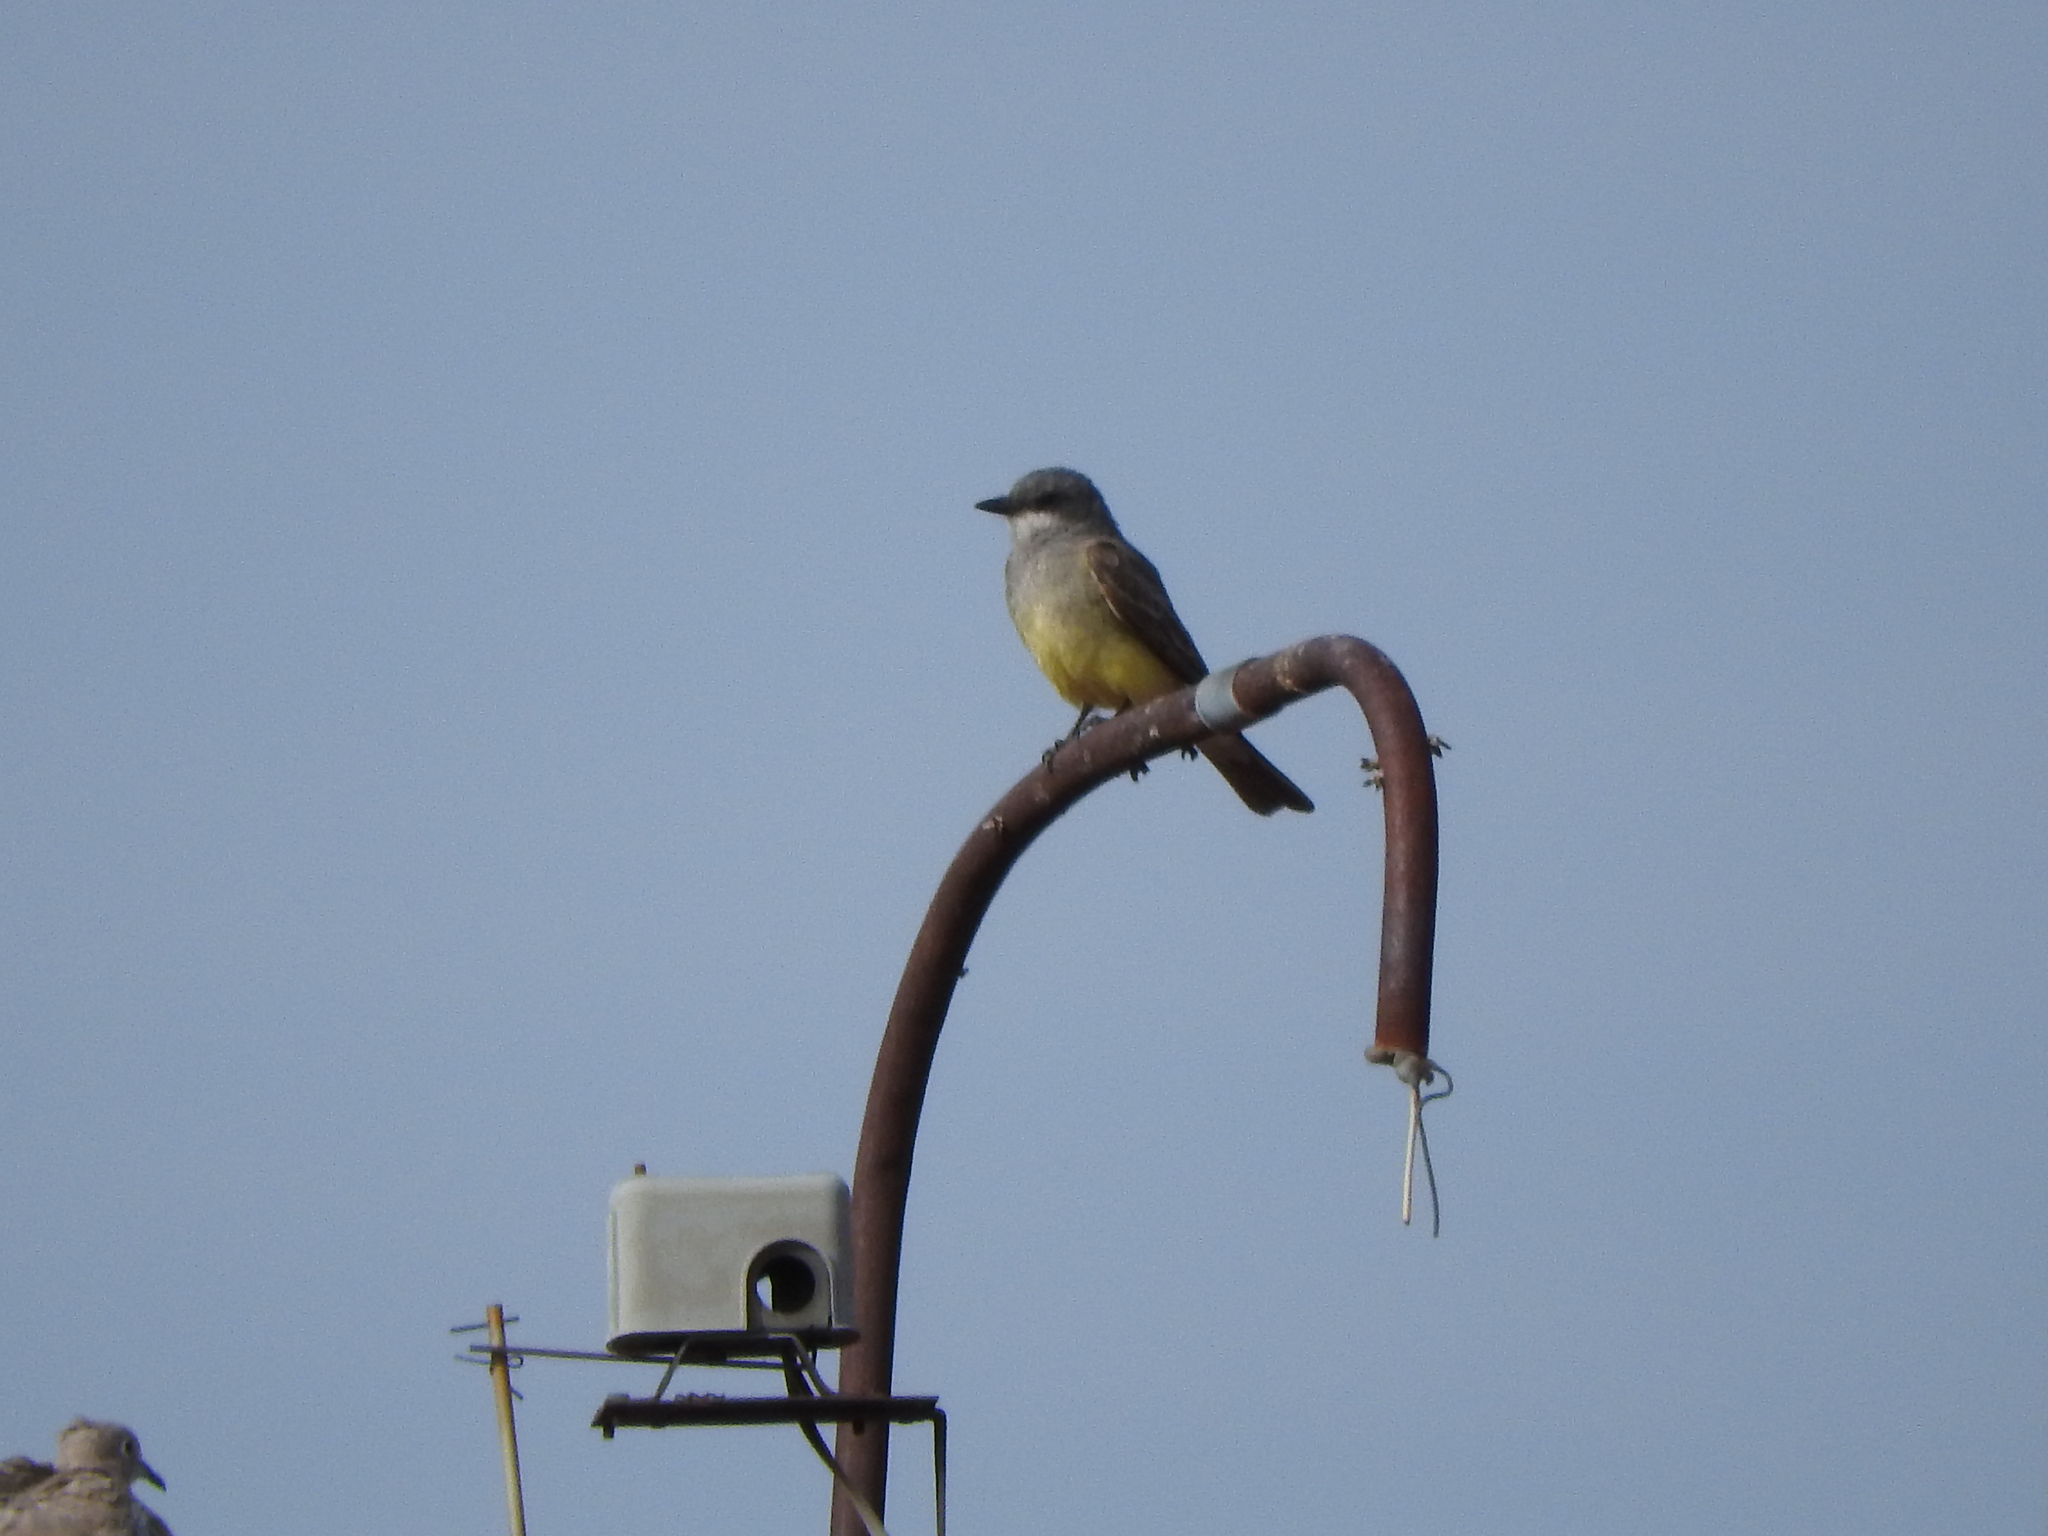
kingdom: Animalia
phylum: Chordata
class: Aves
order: Passeriformes
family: Tyrannidae
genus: Tyrannus
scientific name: Tyrannus vociferans
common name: Cassin's kingbird
